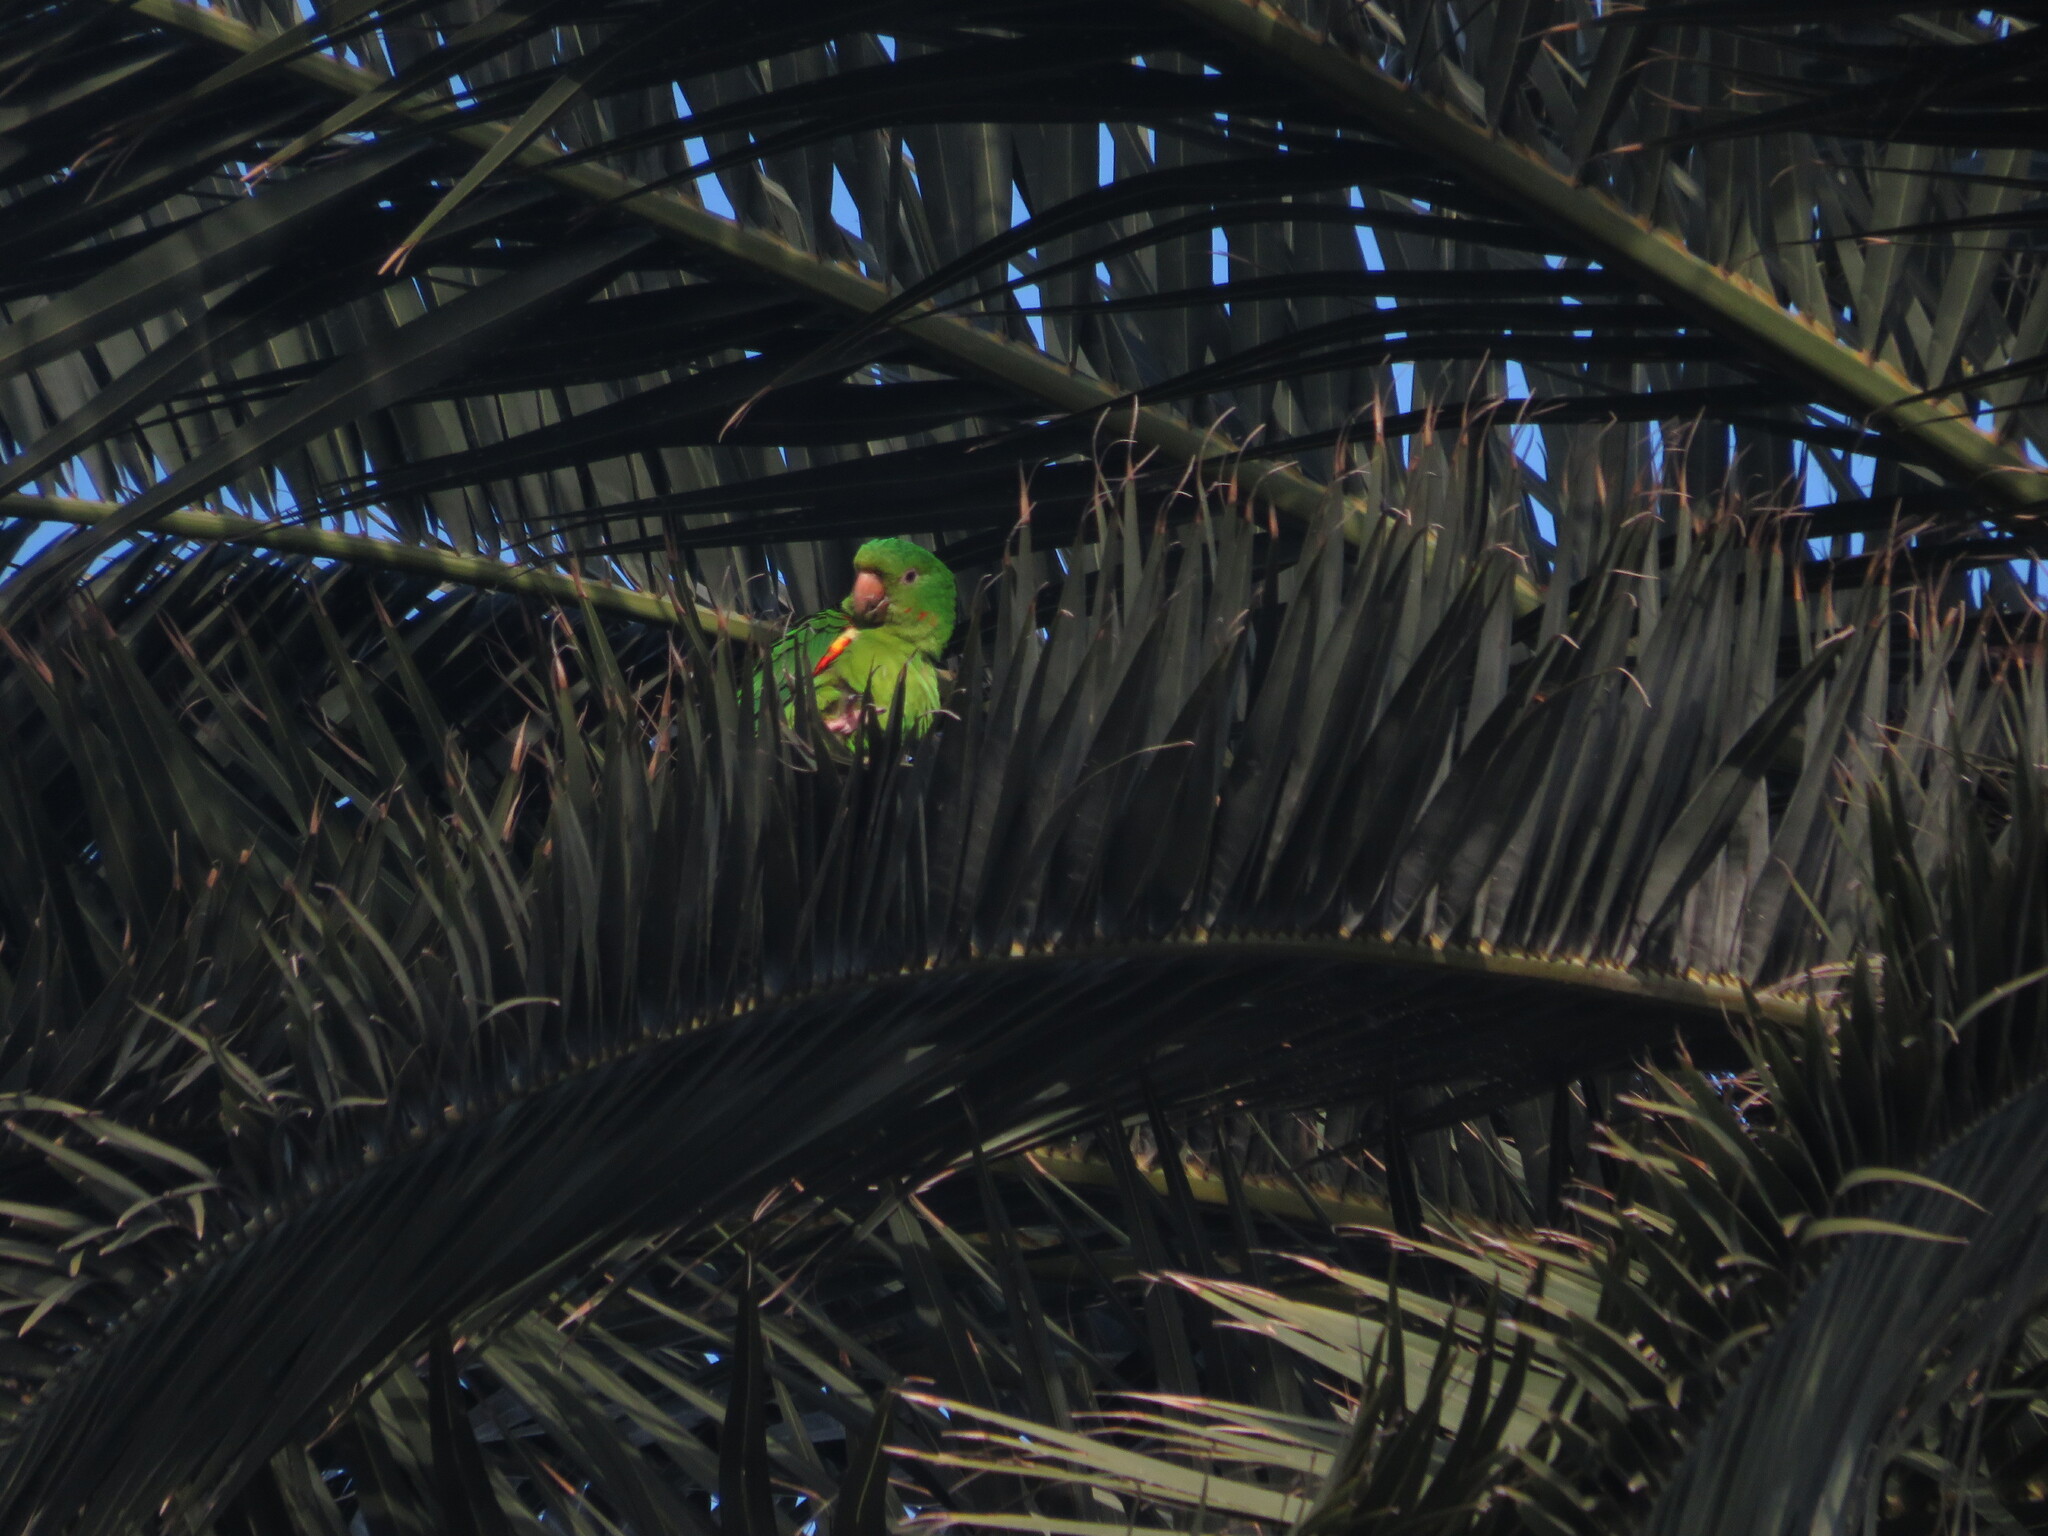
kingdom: Animalia
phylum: Chordata
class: Aves
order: Psittaciformes
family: Psittacidae
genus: Aratinga
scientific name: Aratinga leucophthalma
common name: White-eyed parakeet
